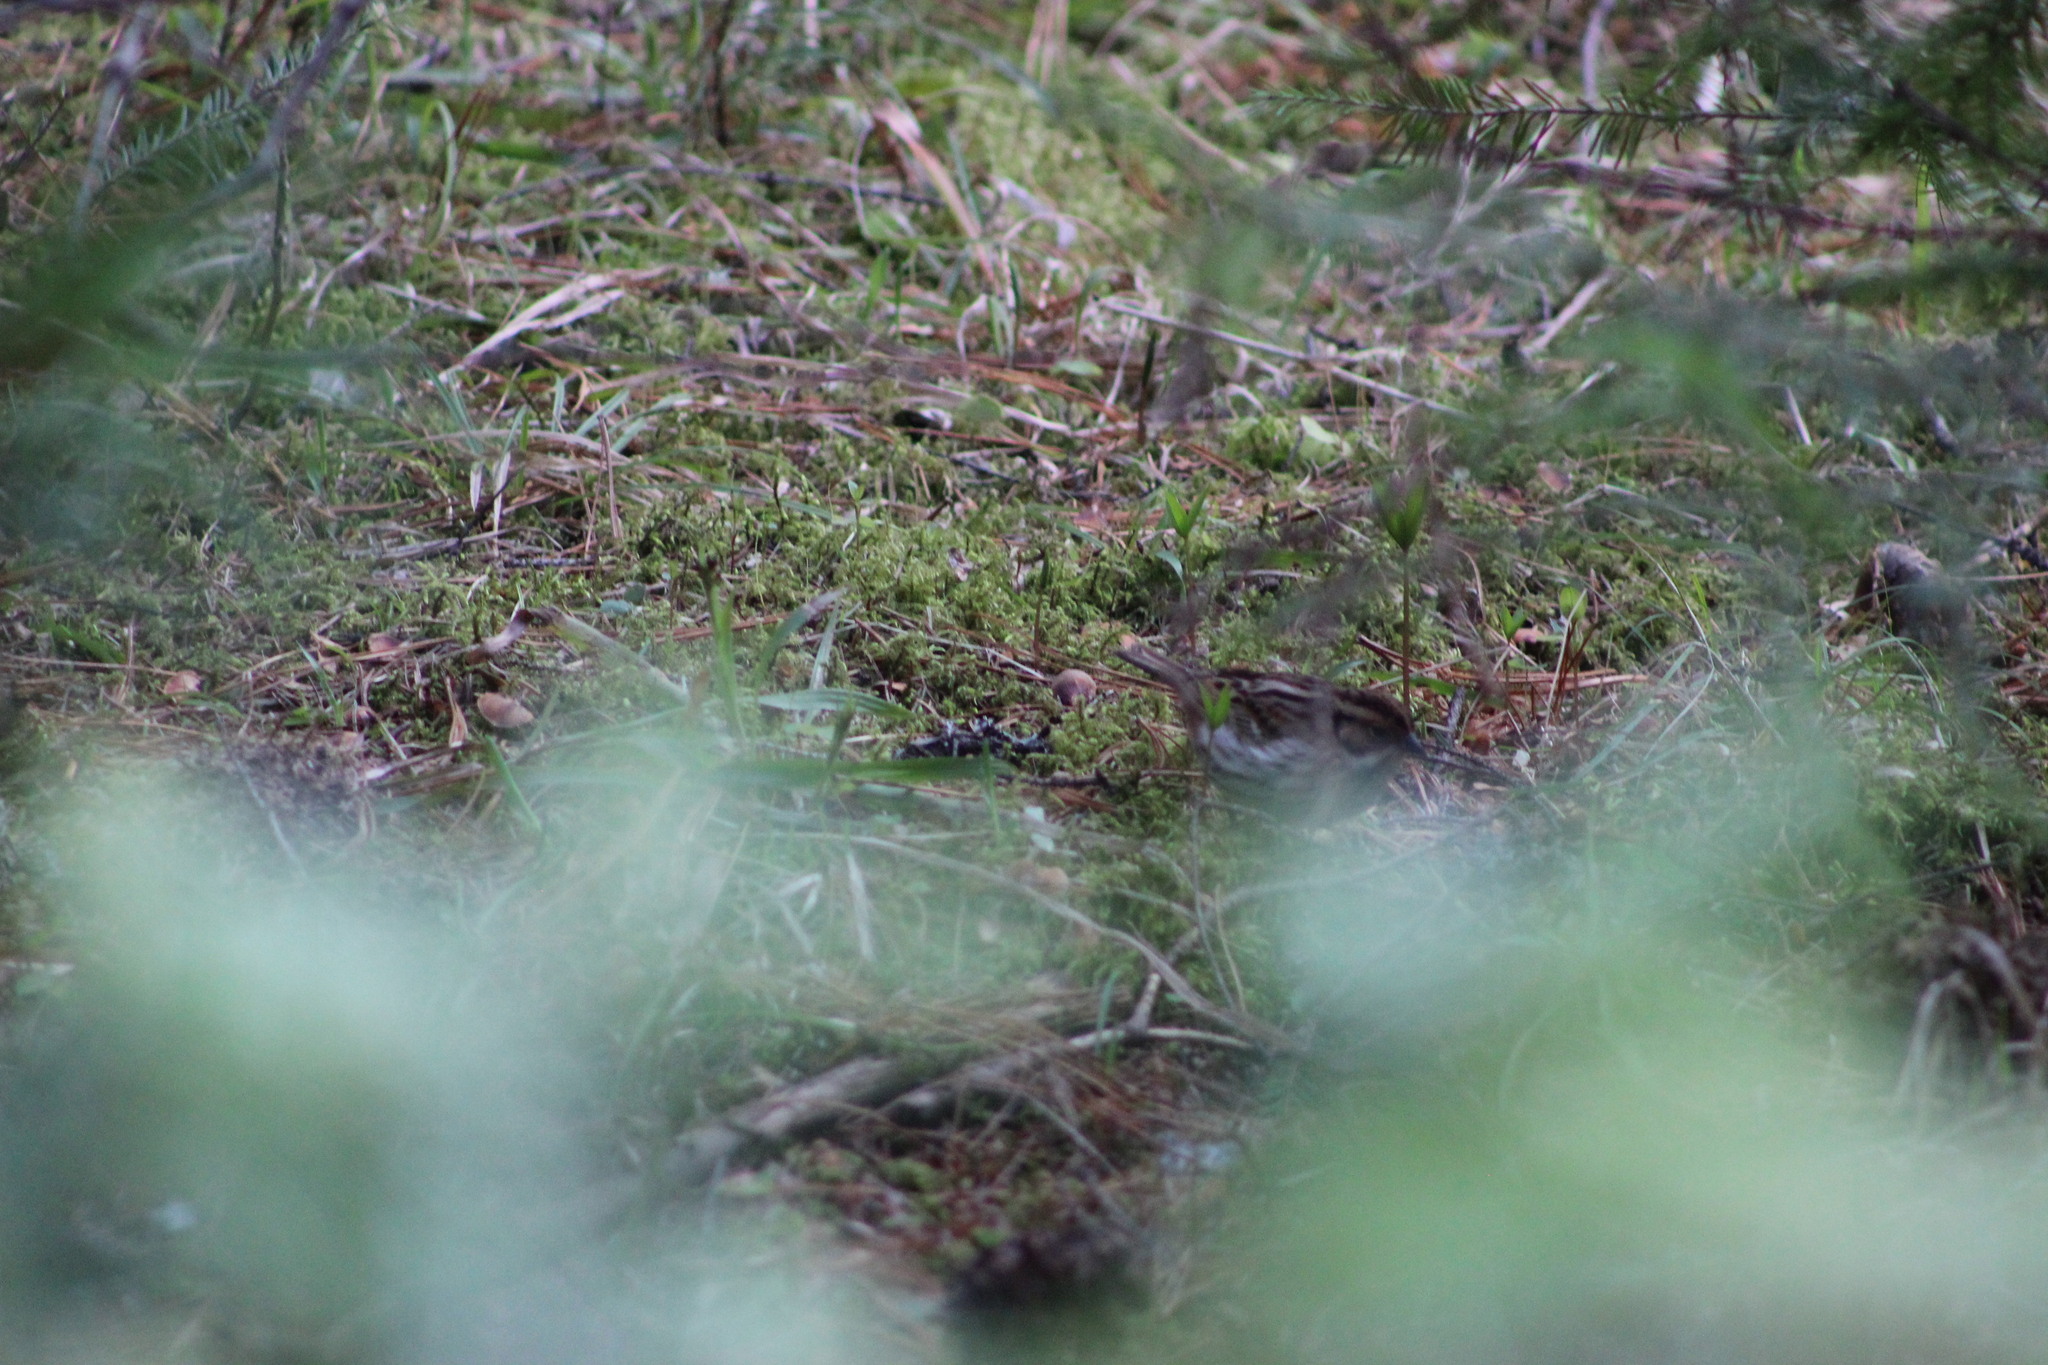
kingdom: Animalia
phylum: Chordata
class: Aves
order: Passeriformes
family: Emberizidae
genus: Emberiza
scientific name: Emberiza pusilla
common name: Little bunting
